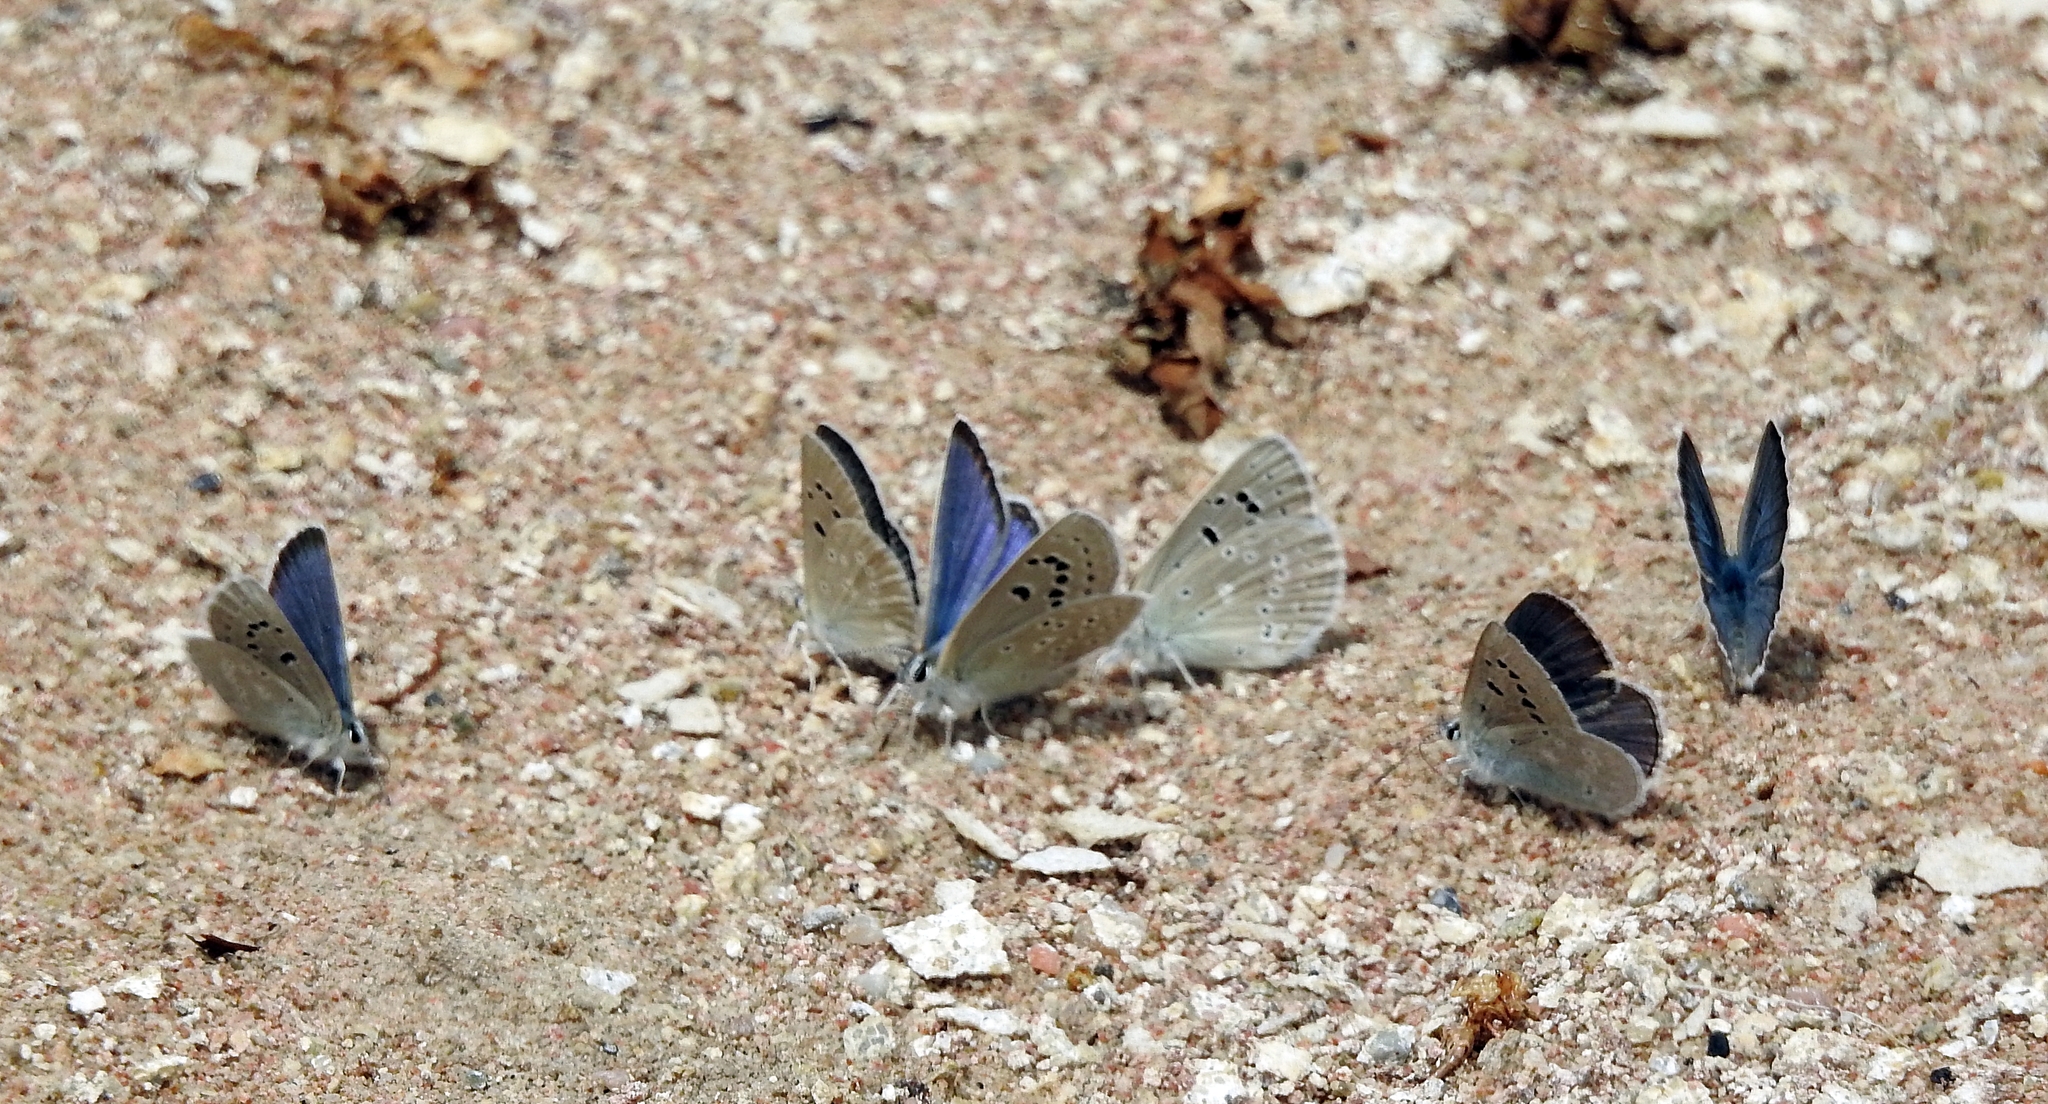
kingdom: Animalia
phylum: Arthropoda
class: Insecta
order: Lepidoptera
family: Lycaenidae
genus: Icaricia
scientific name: Icaricia icarioides
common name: Boisduval's blue
